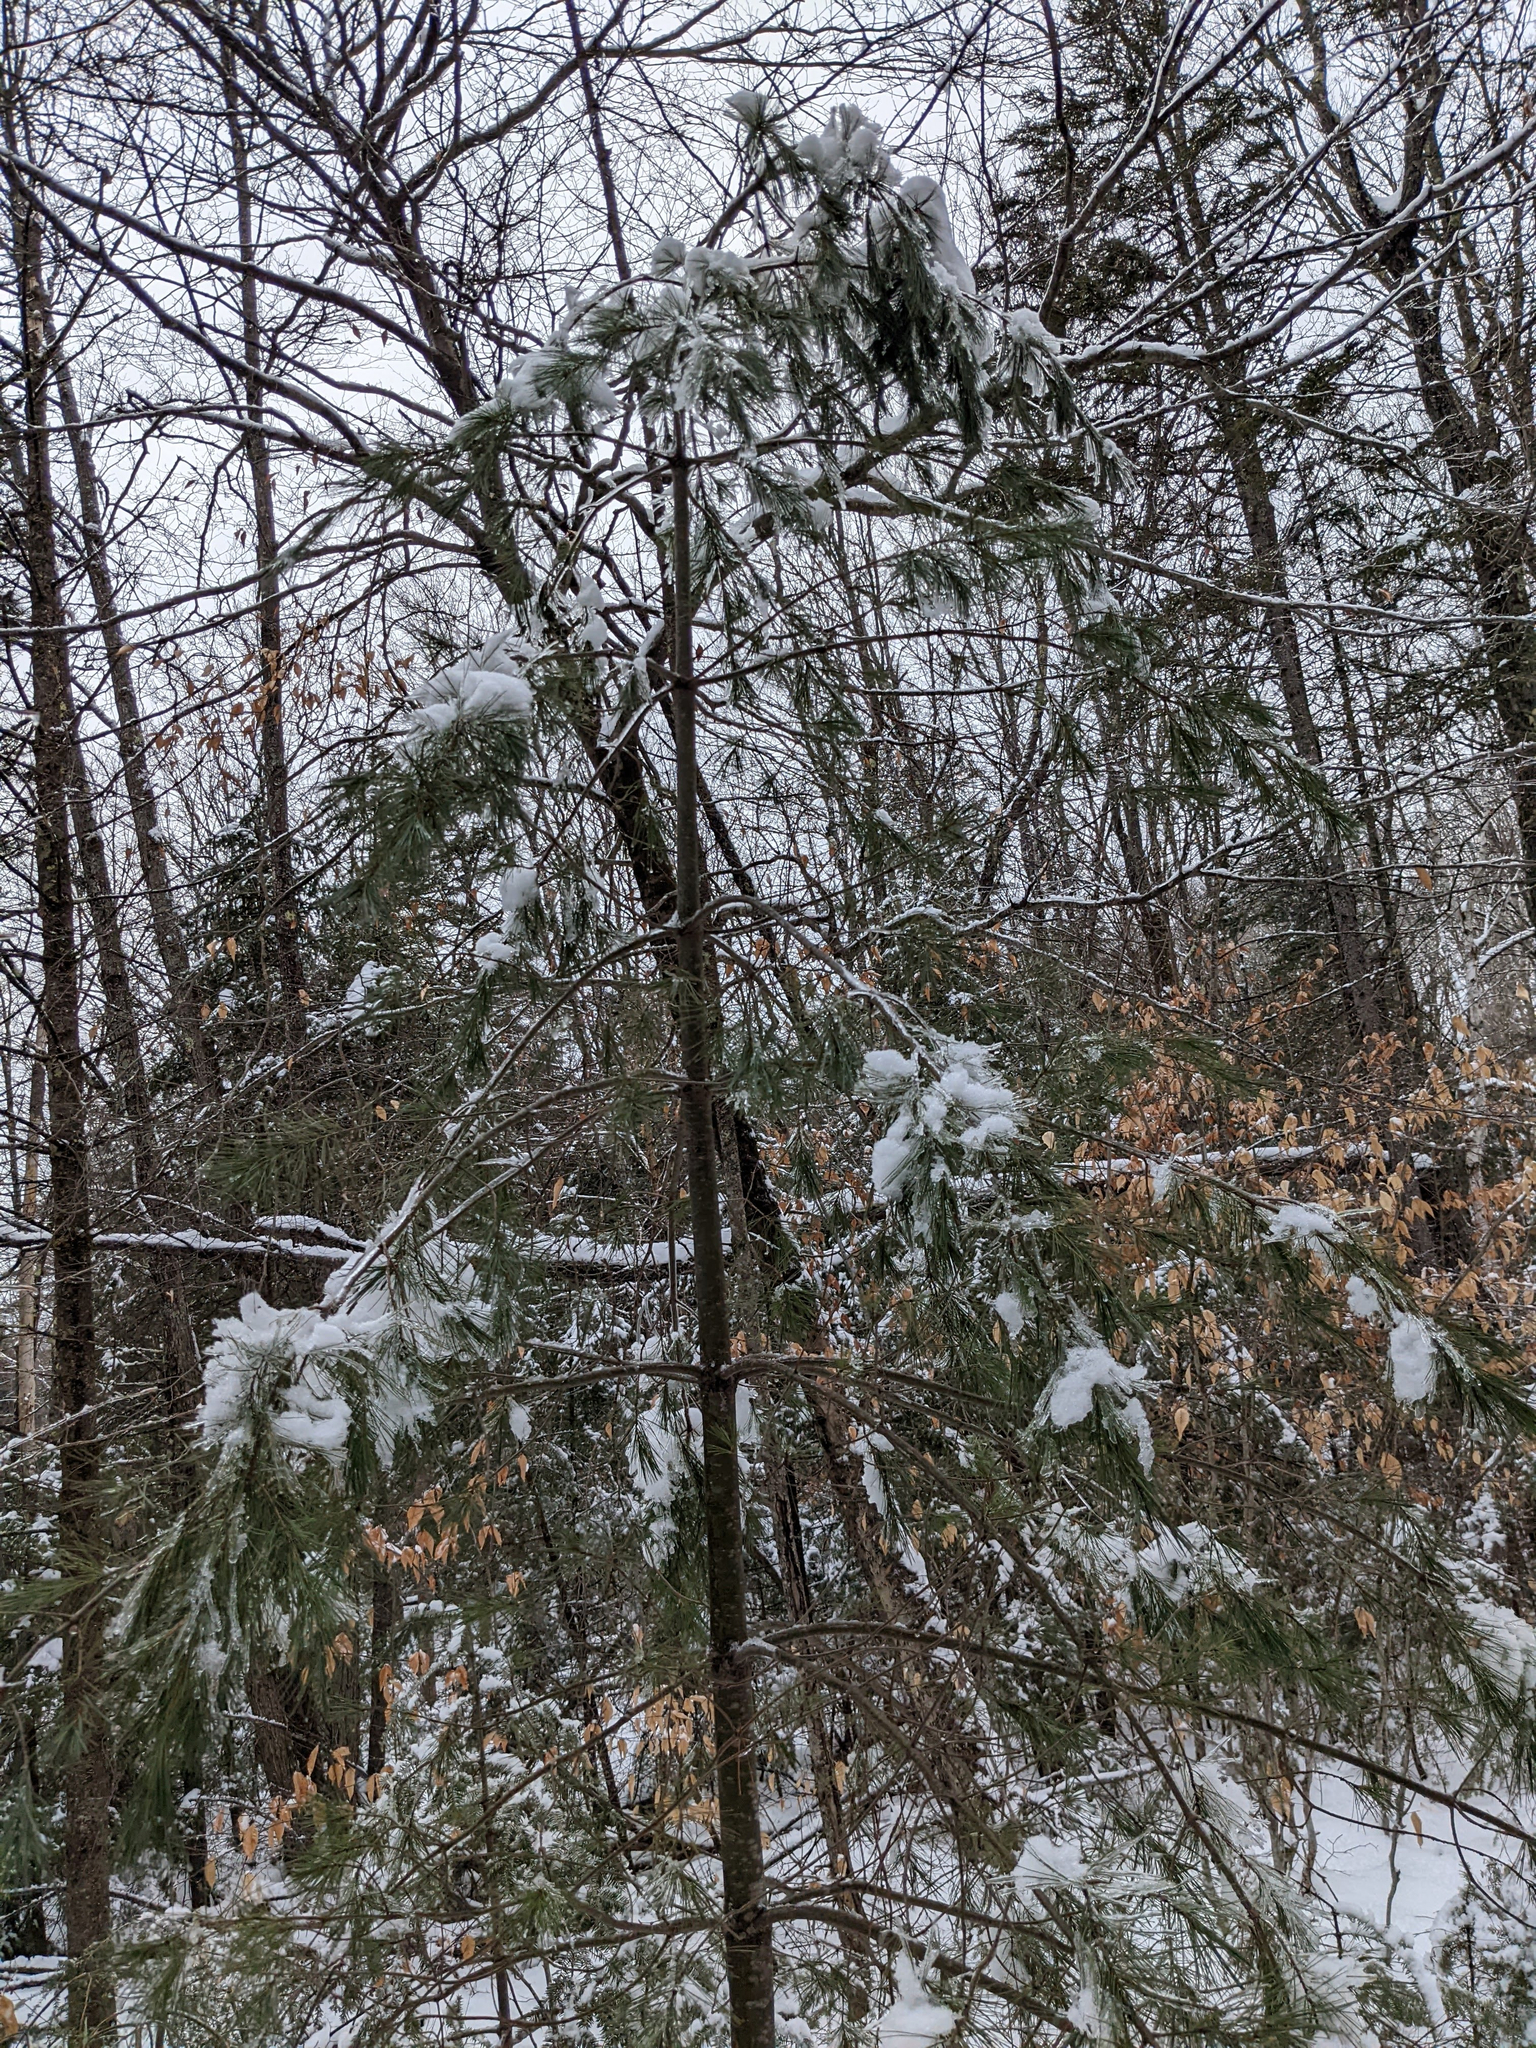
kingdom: Plantae
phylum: Tracheophyta
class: Pinopsida
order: Pinales
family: Pinaceae
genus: Pinus
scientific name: Pinus strobus
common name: Weymouth pine
